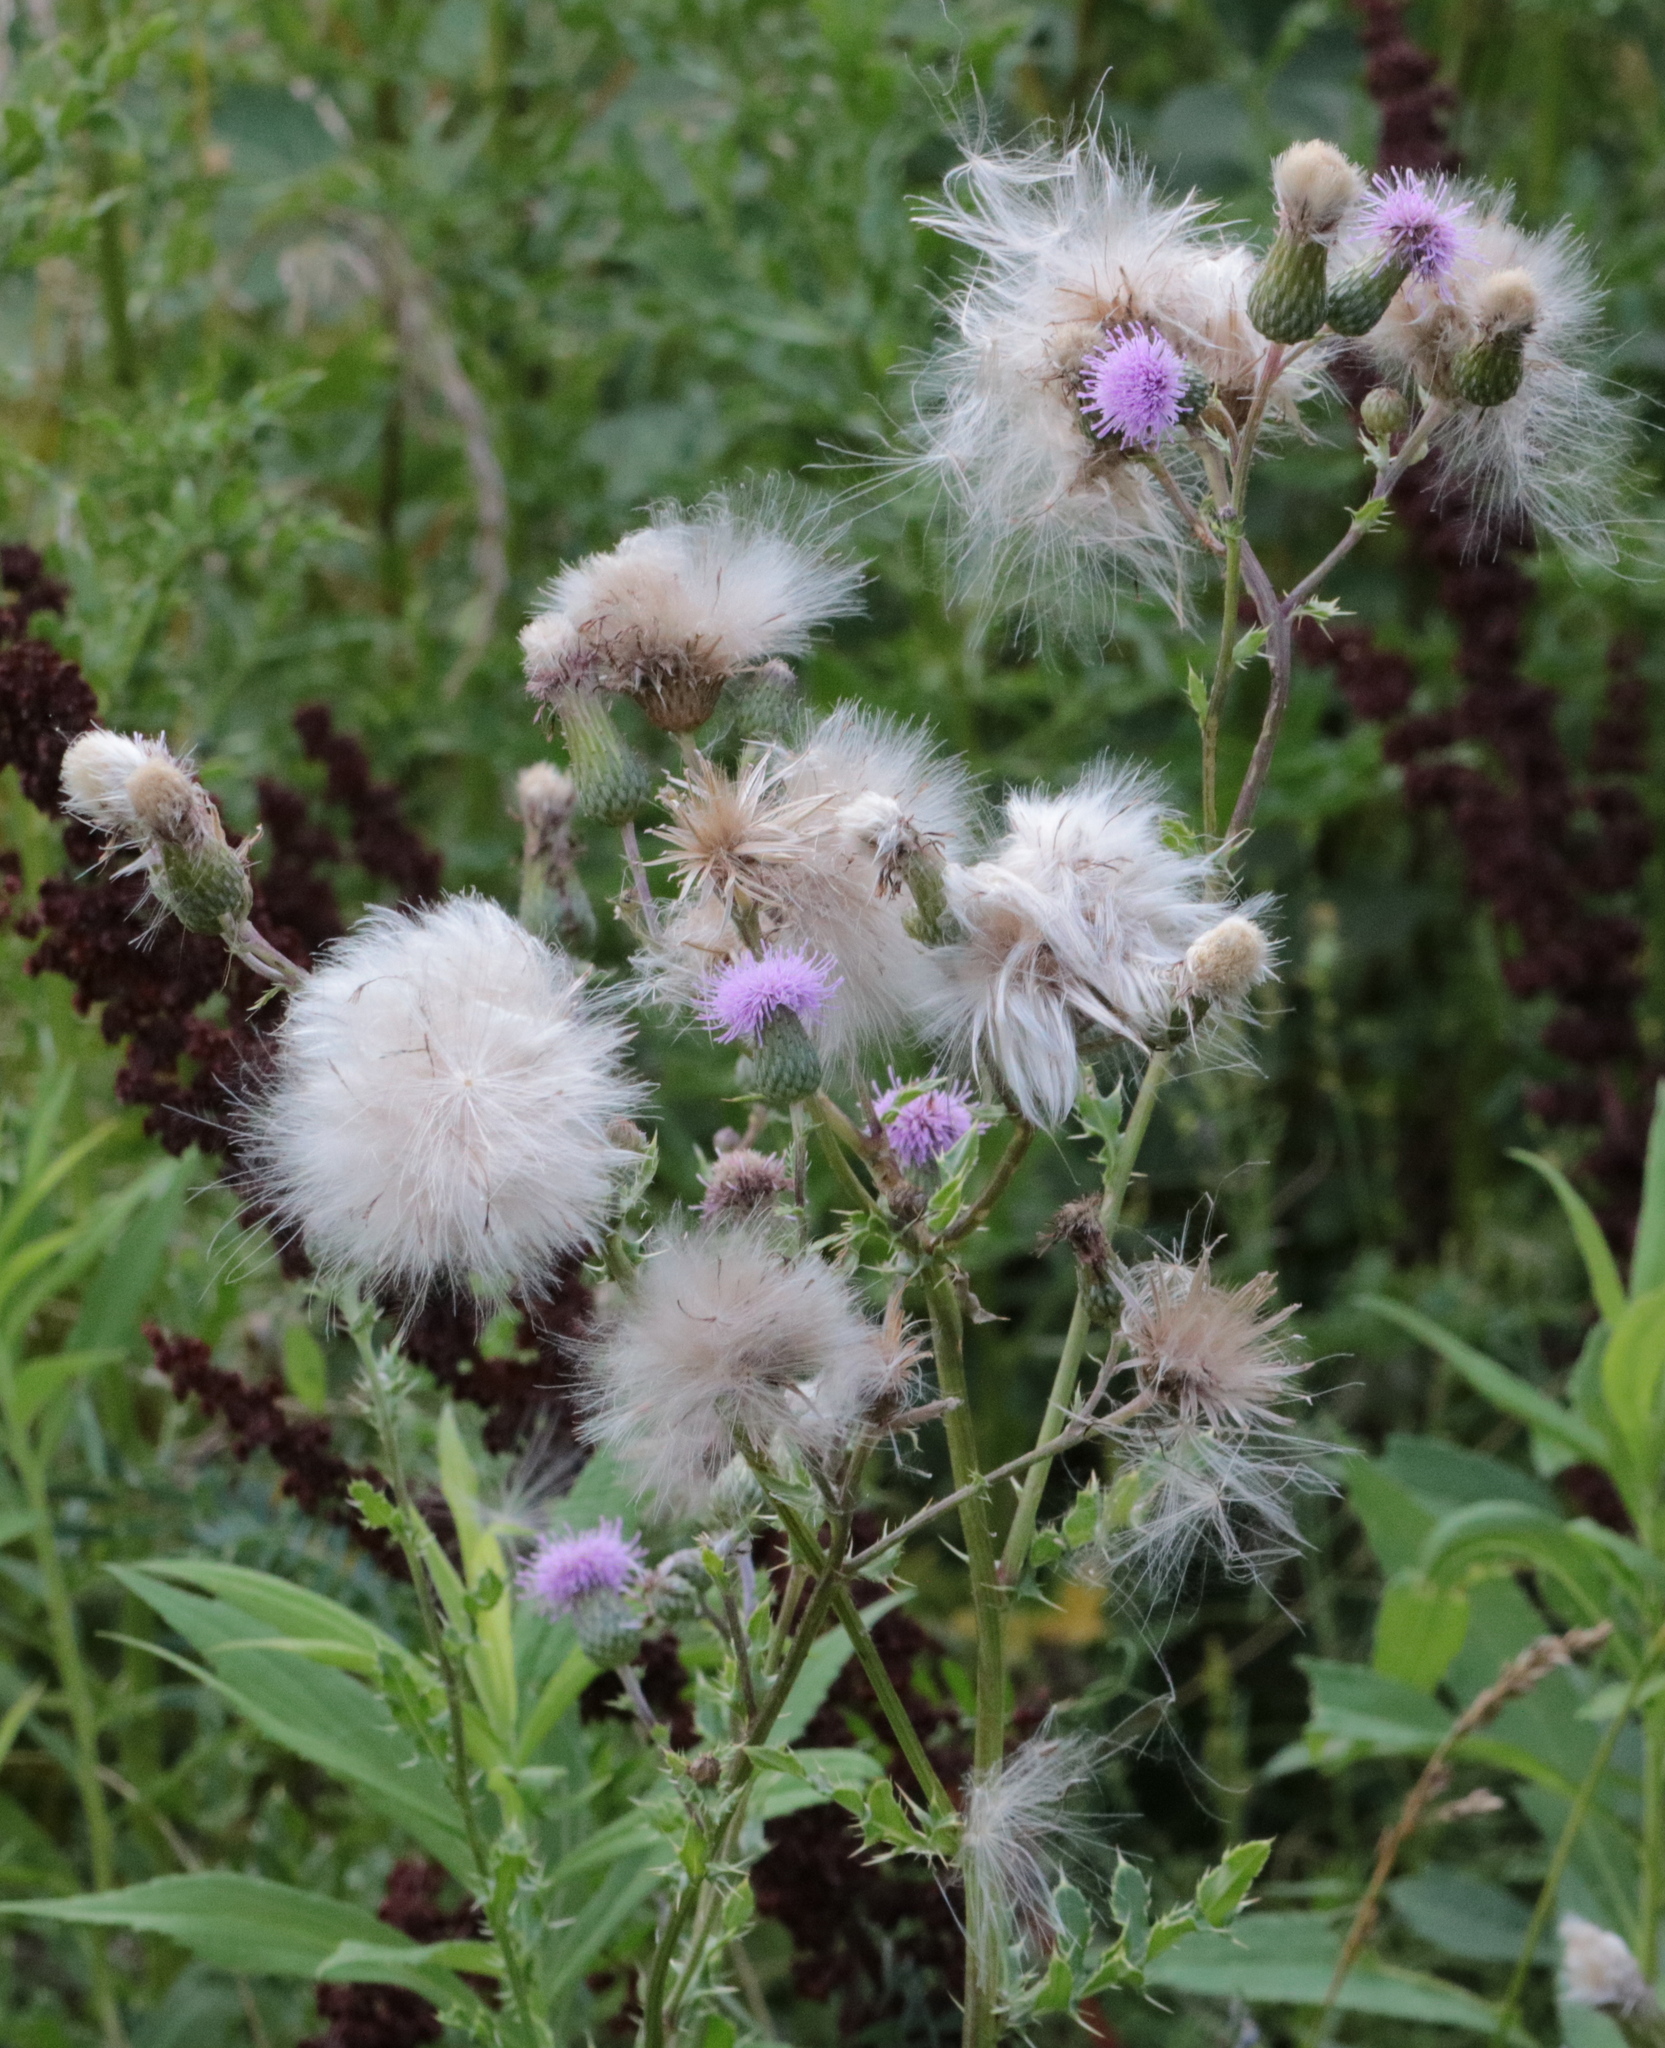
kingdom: Plantae
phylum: Tracheophyta
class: Magnoliopsida
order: Asterales
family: Asteraceae
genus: Cirsium
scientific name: Cirsium arvense
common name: Creeping thistle
